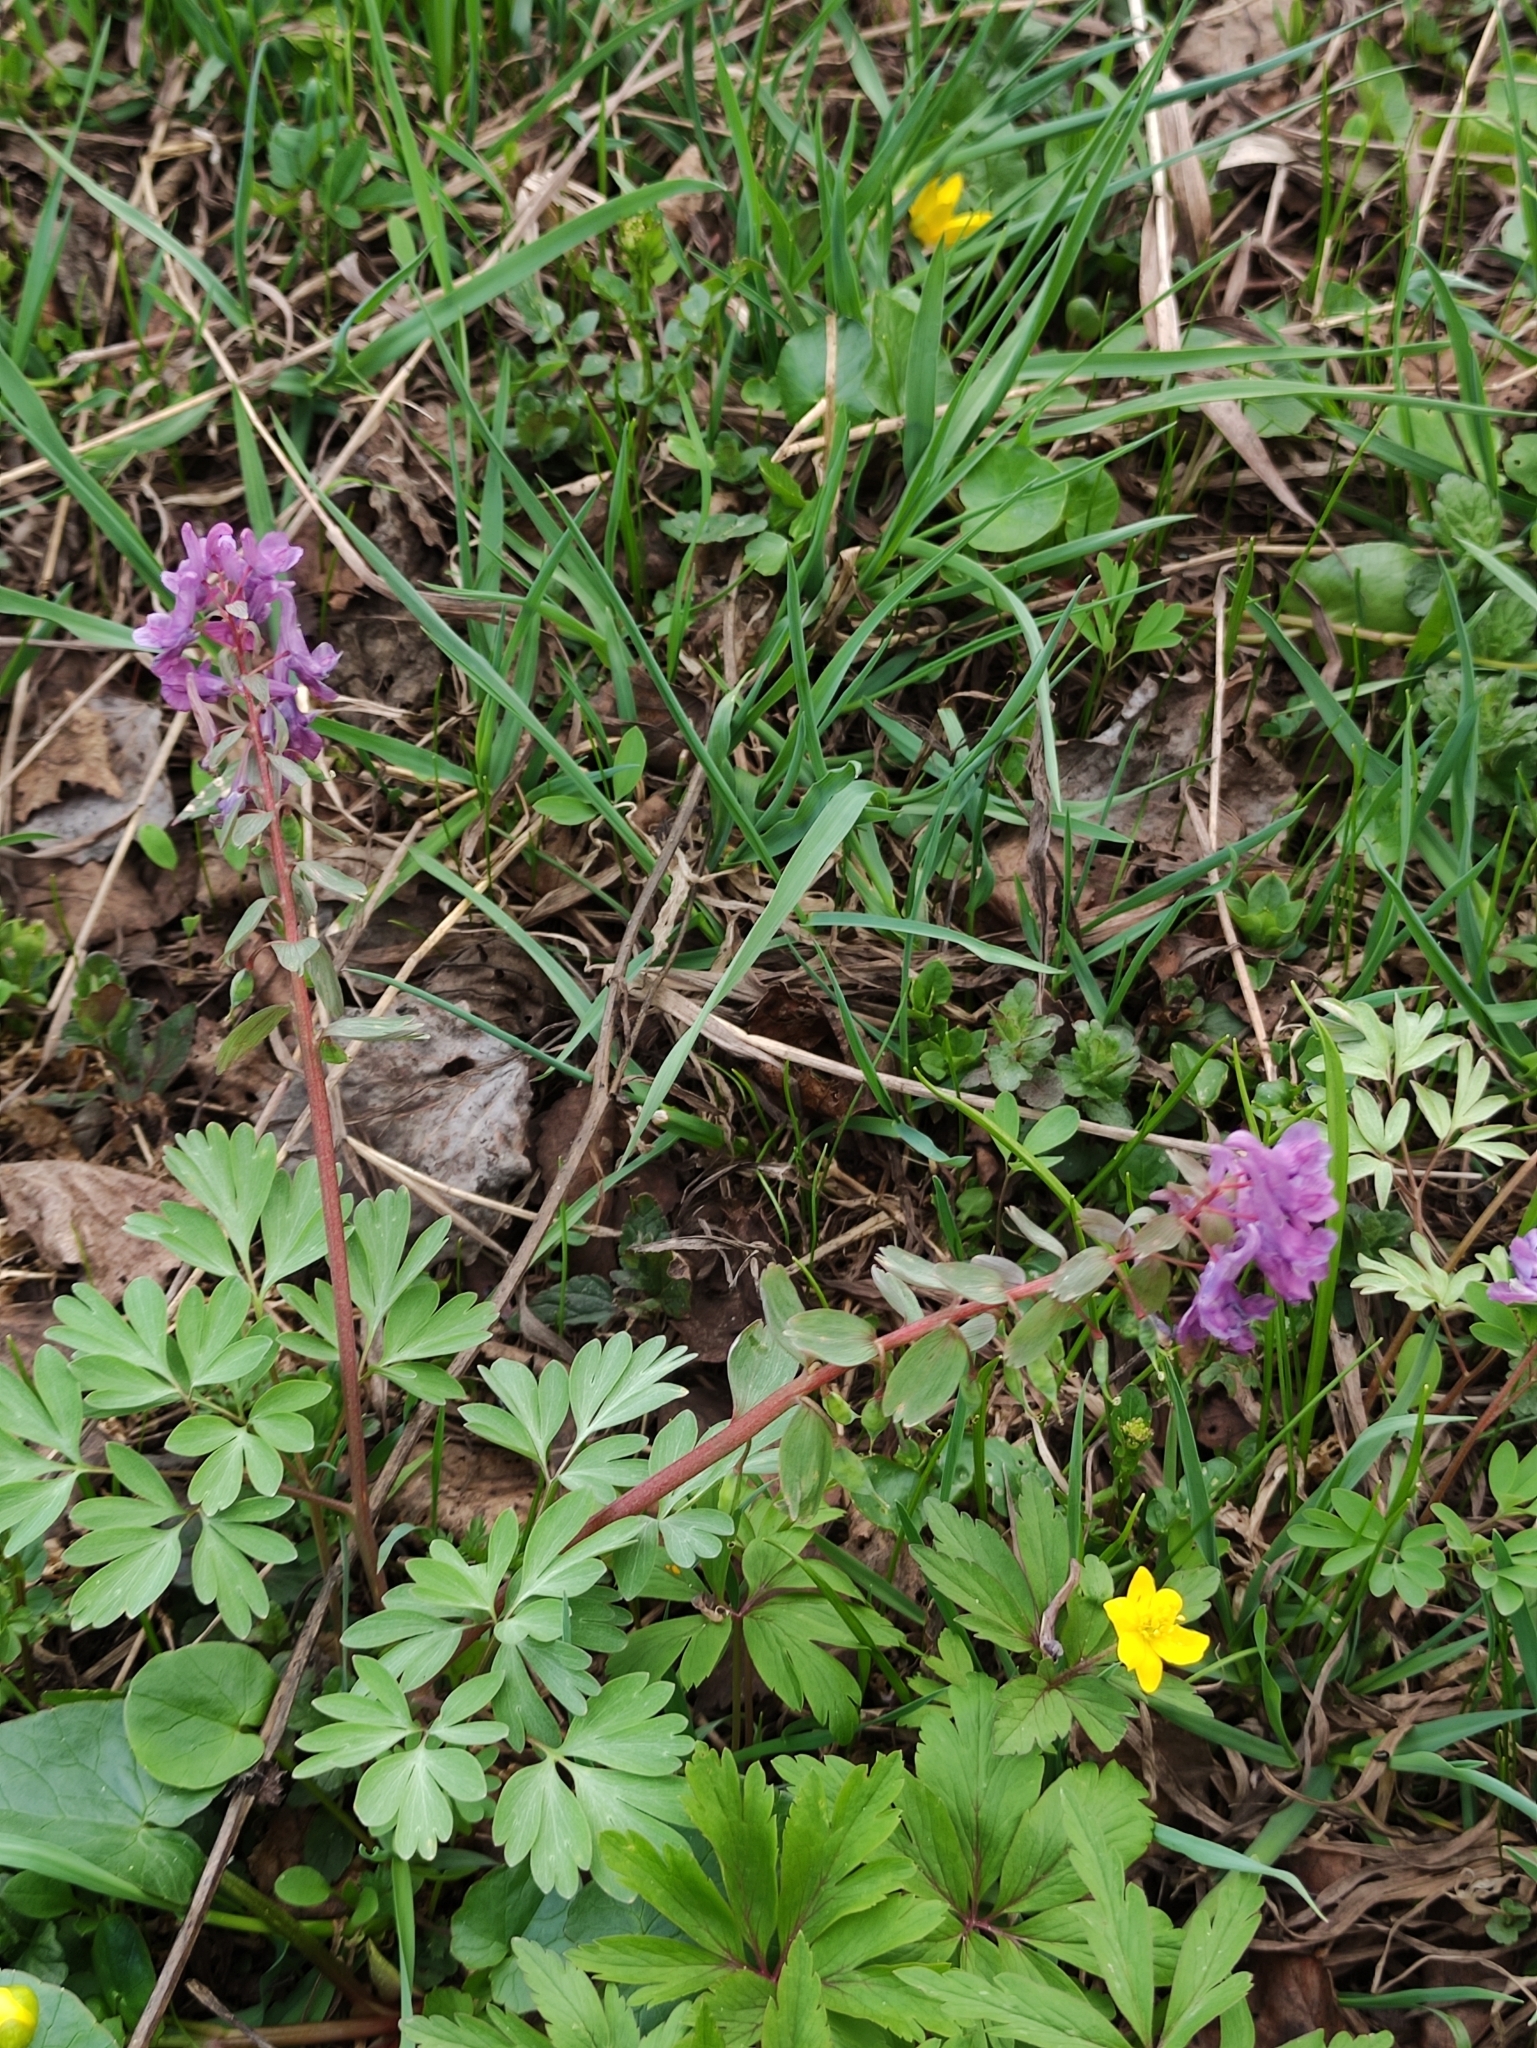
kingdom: Plantae
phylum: Tracheophyta
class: Magnoliopsida
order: Ranunculales
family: Papaveraceae
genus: Corydalis
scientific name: Corydalis solida
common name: Bird-in-a-bush
